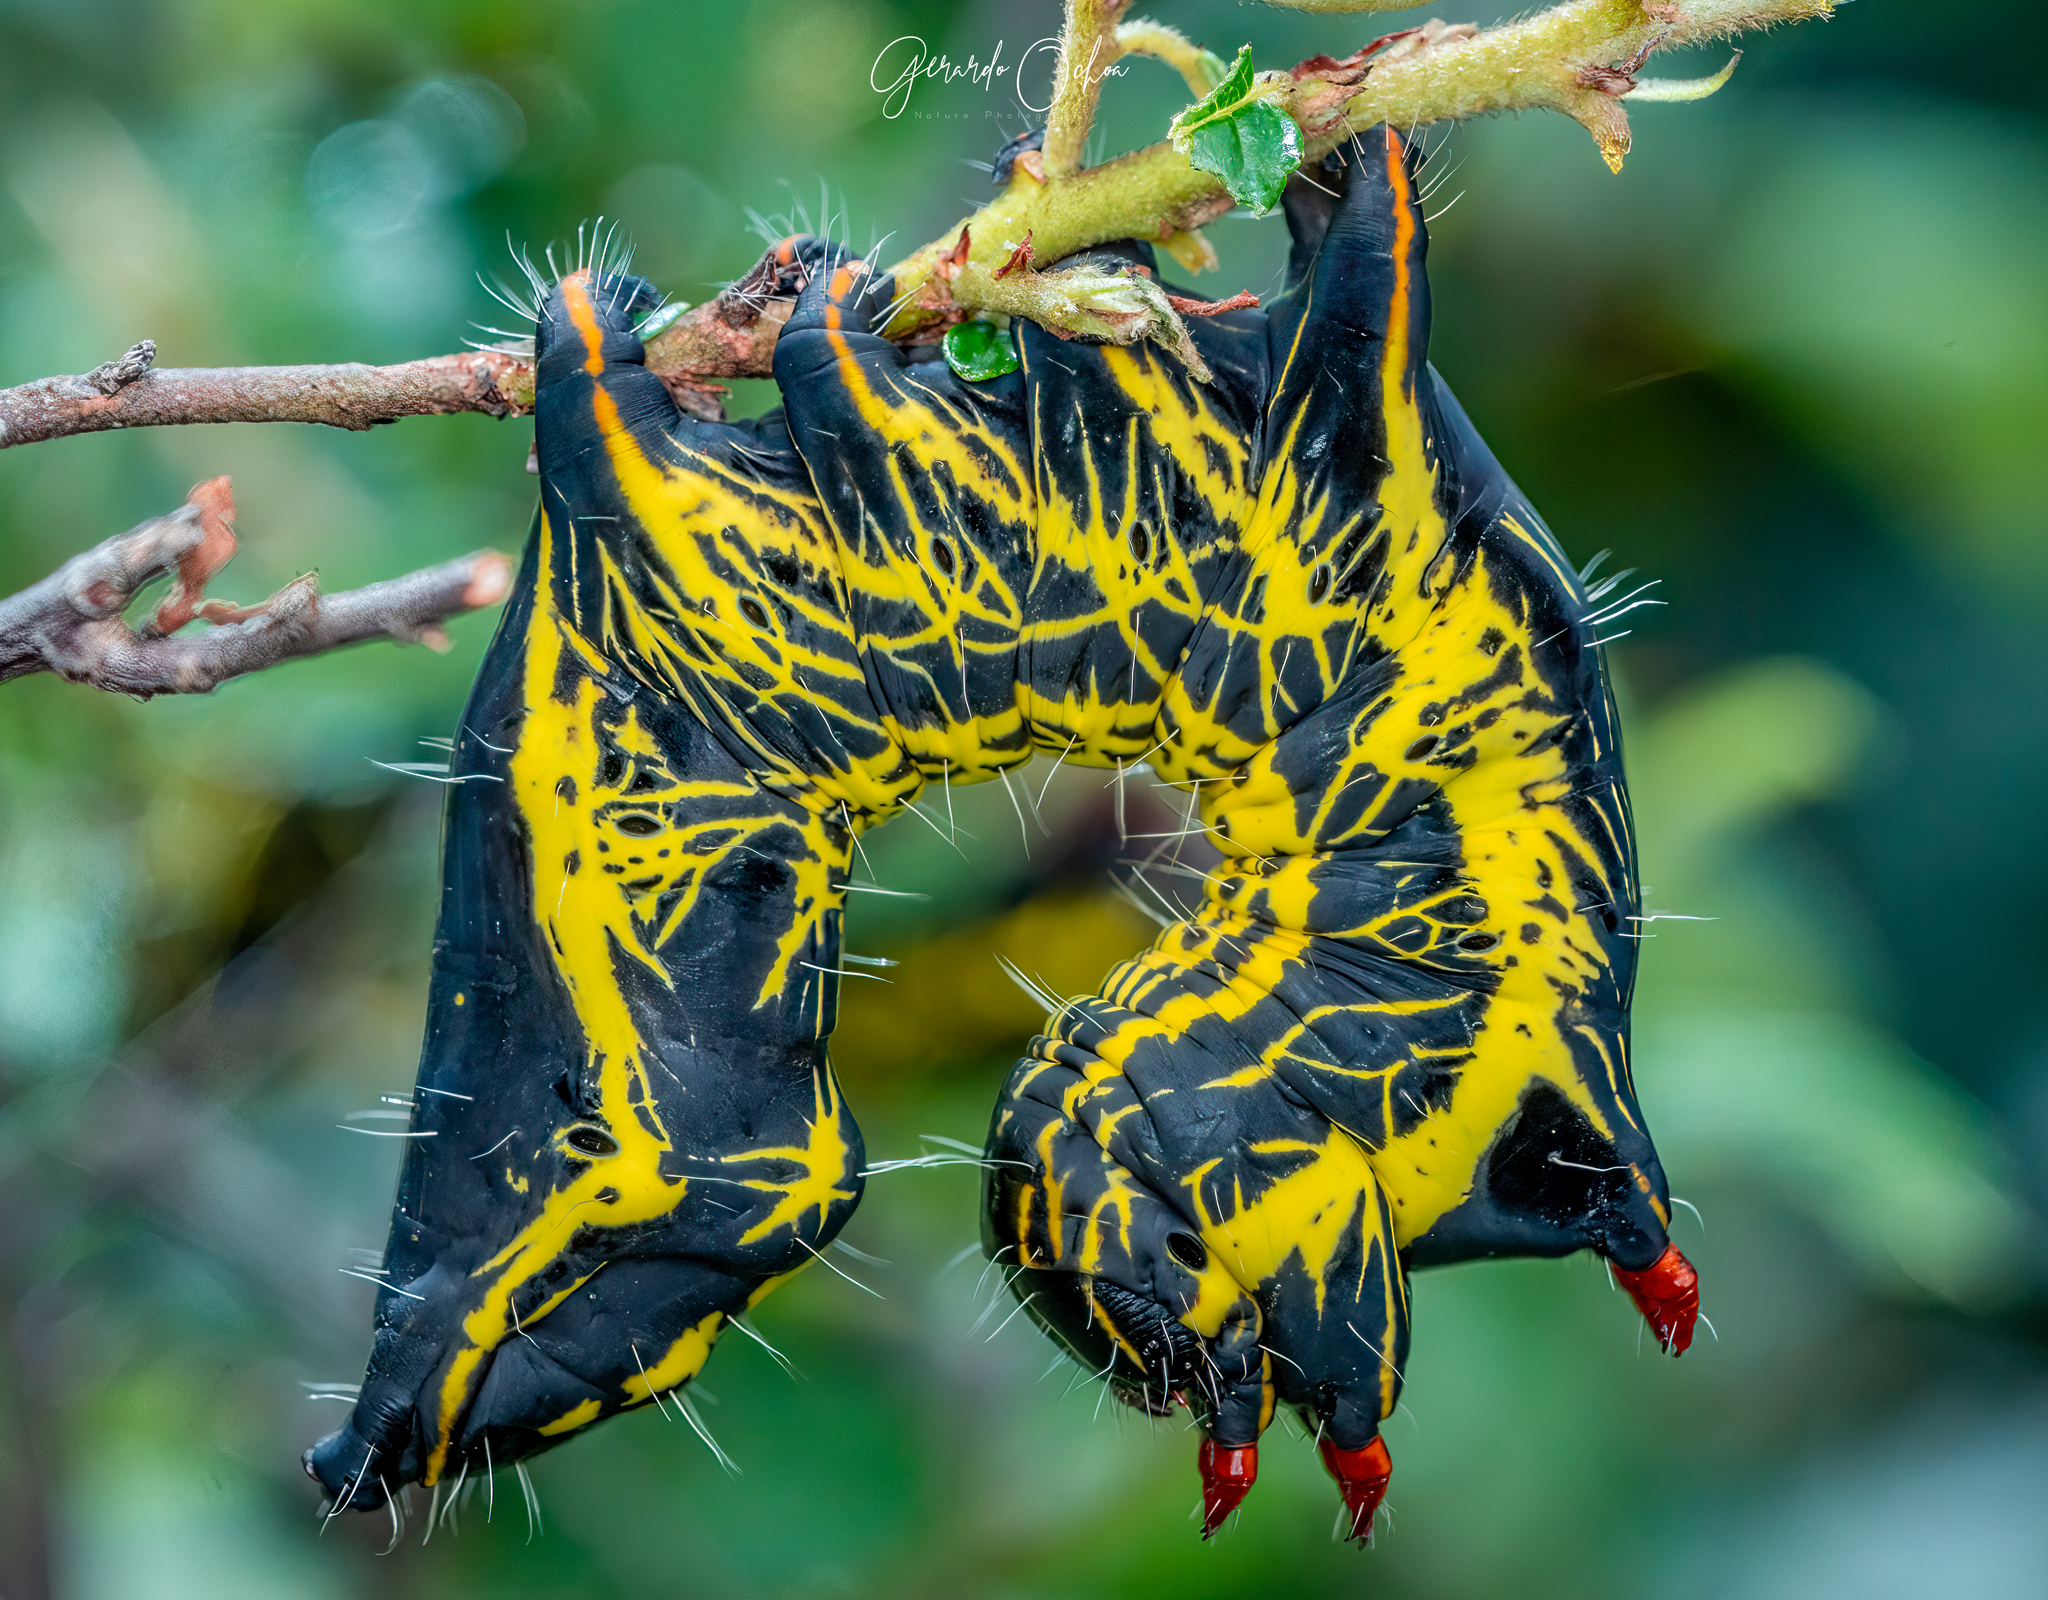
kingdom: Animalia
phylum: Arthropoda
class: Insecta
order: Lepidoptera
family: Notodontidae
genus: Crinodes
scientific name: Crinodes biedermani
